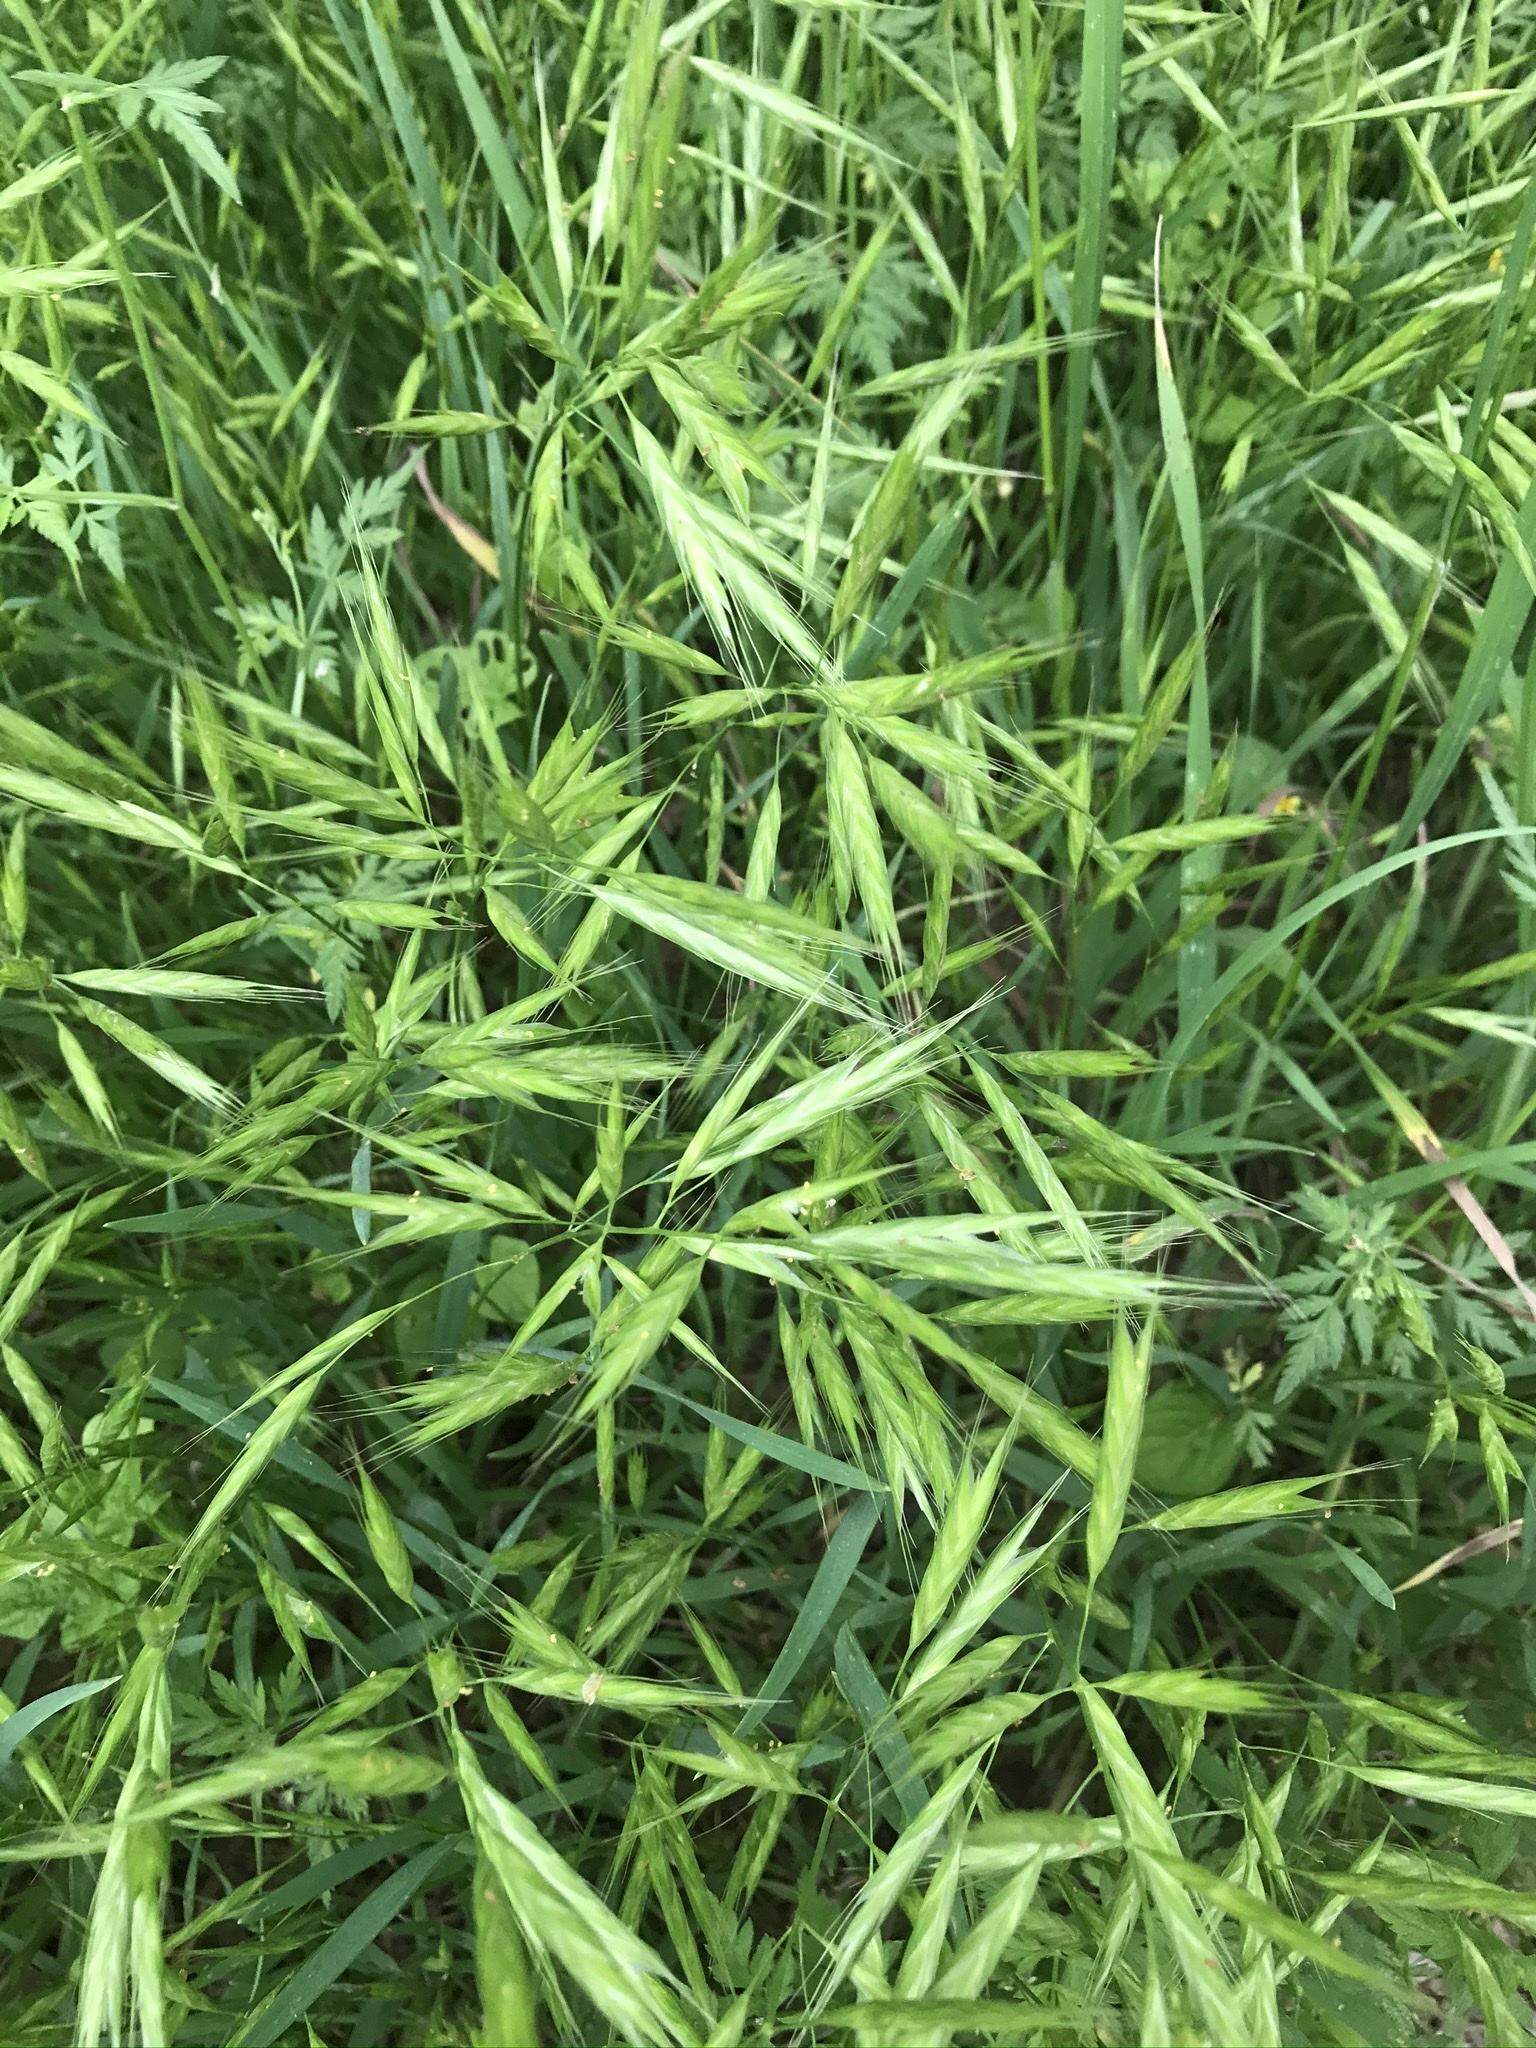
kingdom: Plantae
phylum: Tracheophyta
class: Liliopsida
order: Poales
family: Poaceae
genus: Bromus
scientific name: Bromus lanceolatus
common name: Mediterranean brome
